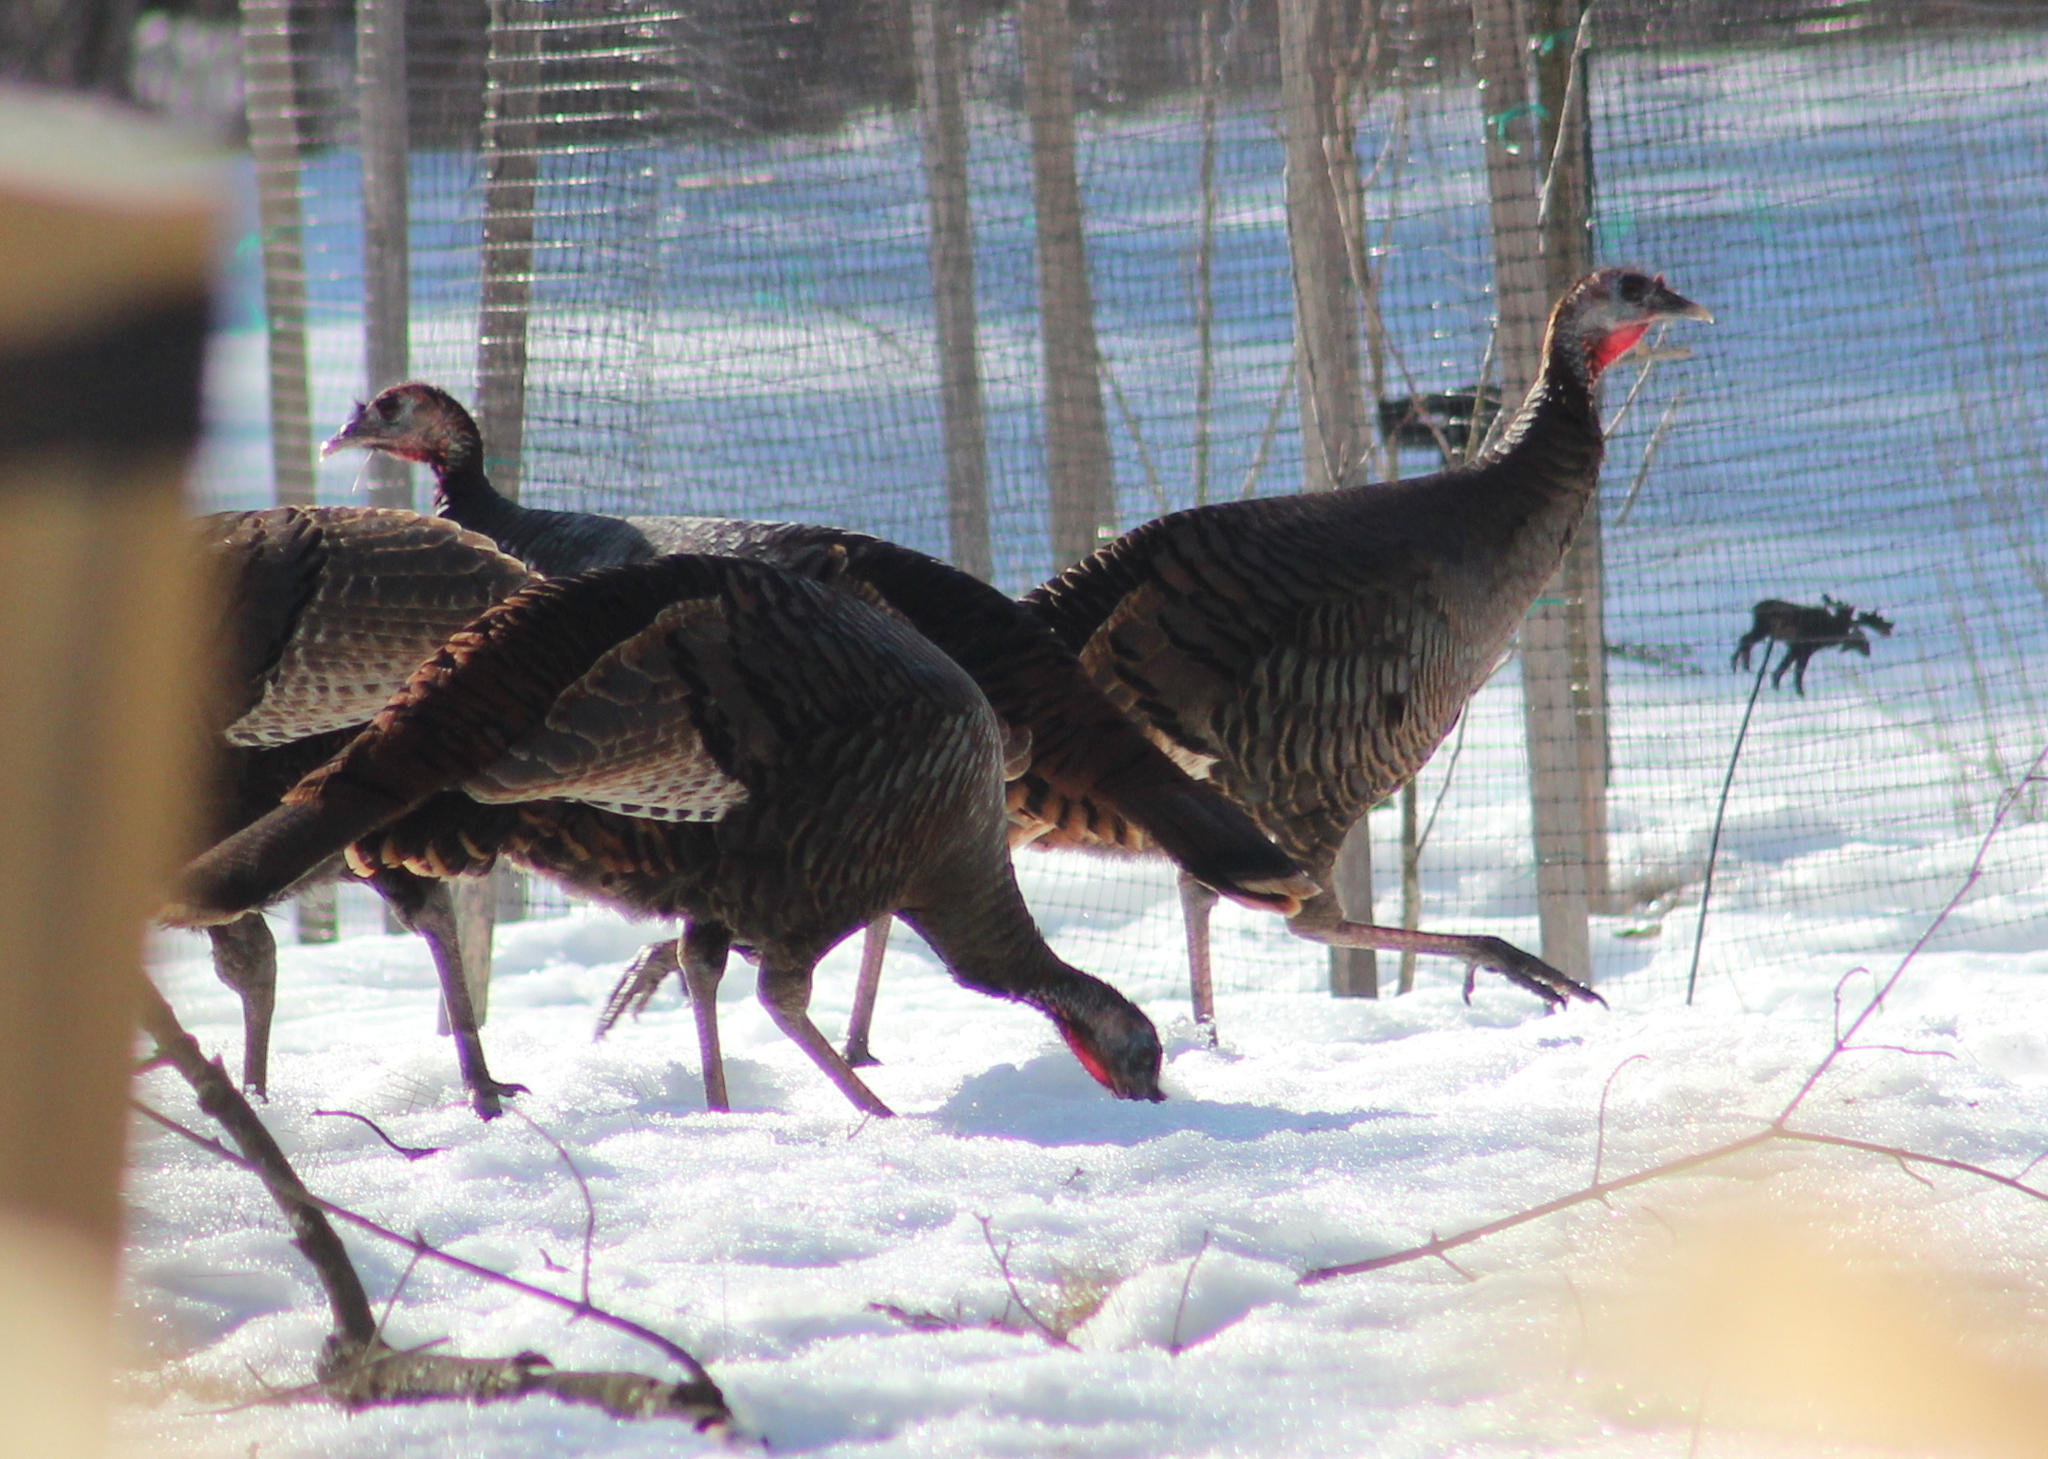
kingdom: Animalia
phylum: Chordata
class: Aves
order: Galliformes
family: Phasianidae
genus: Meleagris
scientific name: Meleagris gallopavo
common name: Wild turkey
